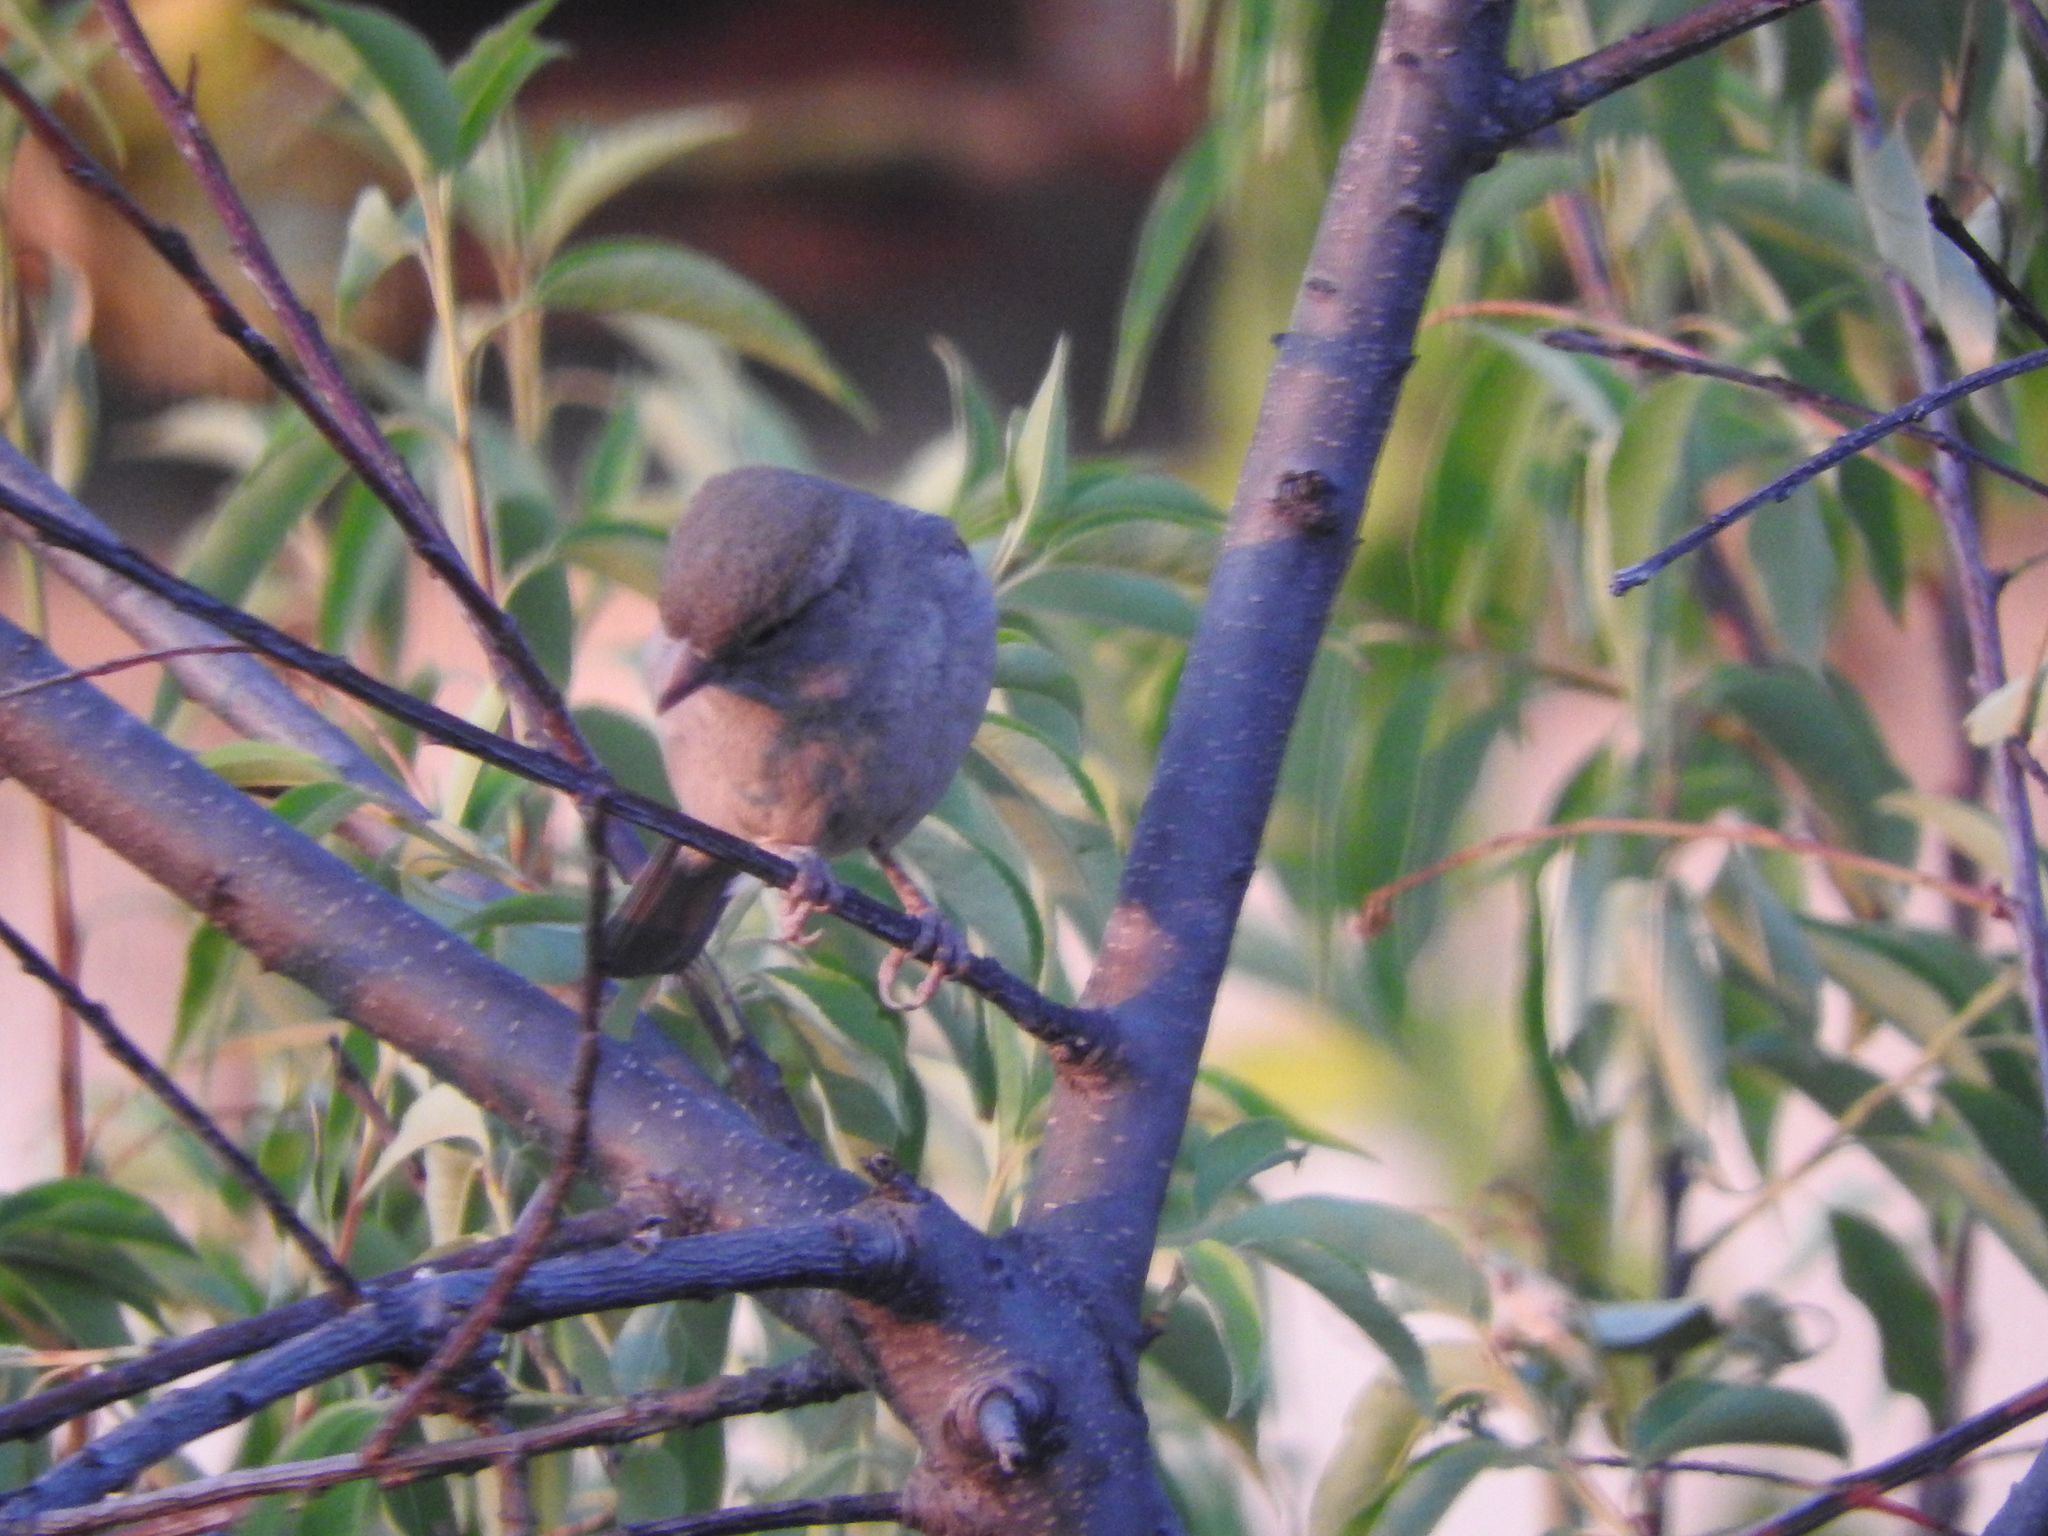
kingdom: Animalia
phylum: Chordata
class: Aves
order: Passeriformes
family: Passeridae
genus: Passer
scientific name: Passer domesticus
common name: House sparrow
